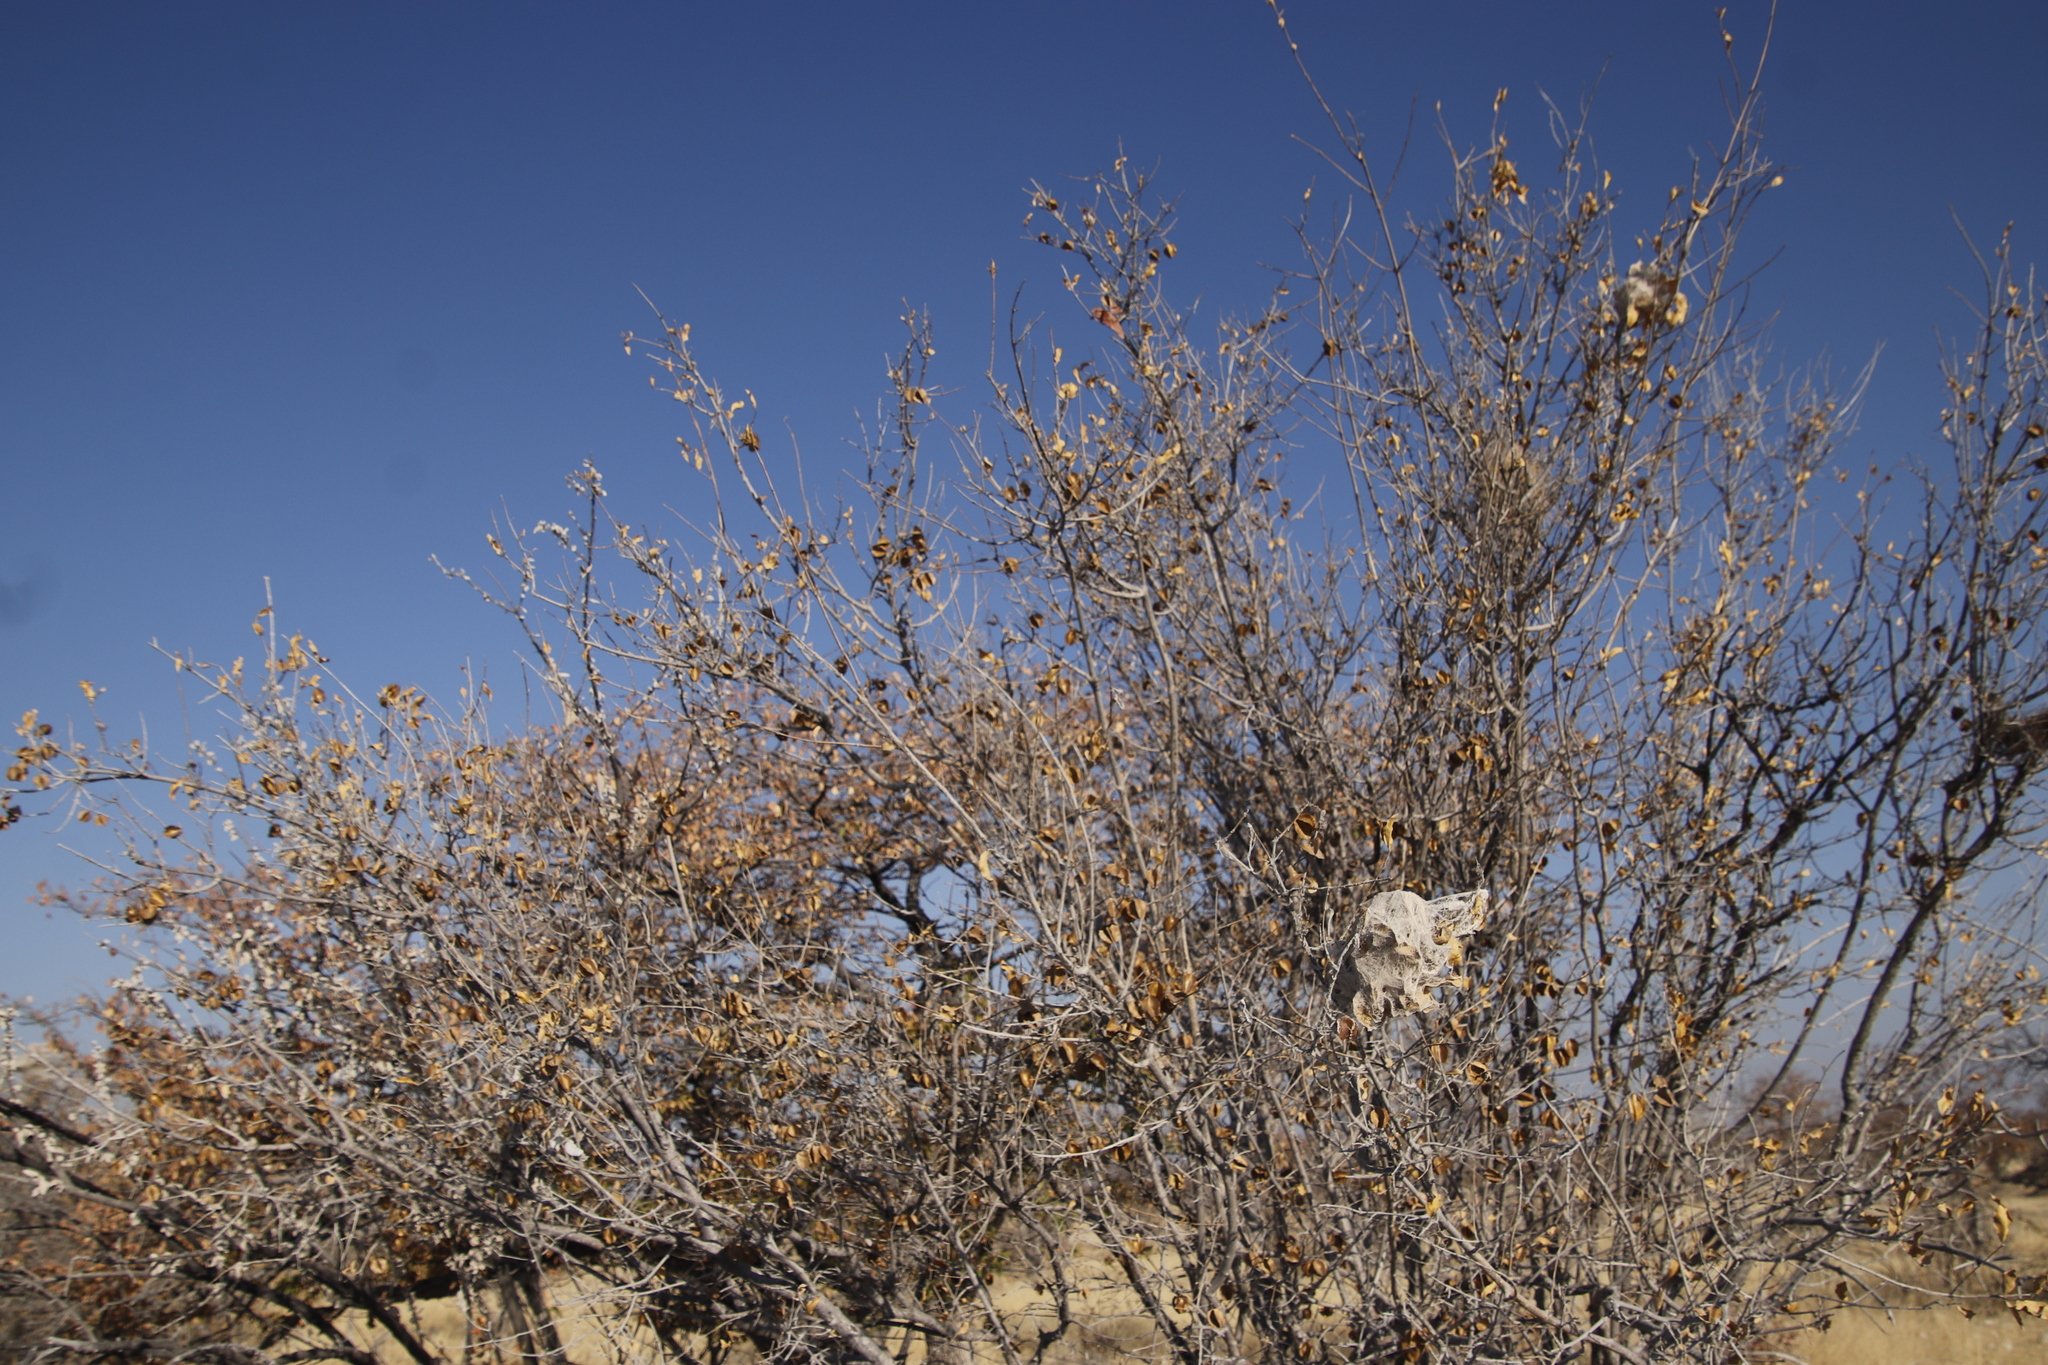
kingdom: Plantae
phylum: Tracheophyta
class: Magnoliopsida
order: Fabales
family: Fabaceae
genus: Colophospermum
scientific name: Colophospermum mopane
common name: Mopane
